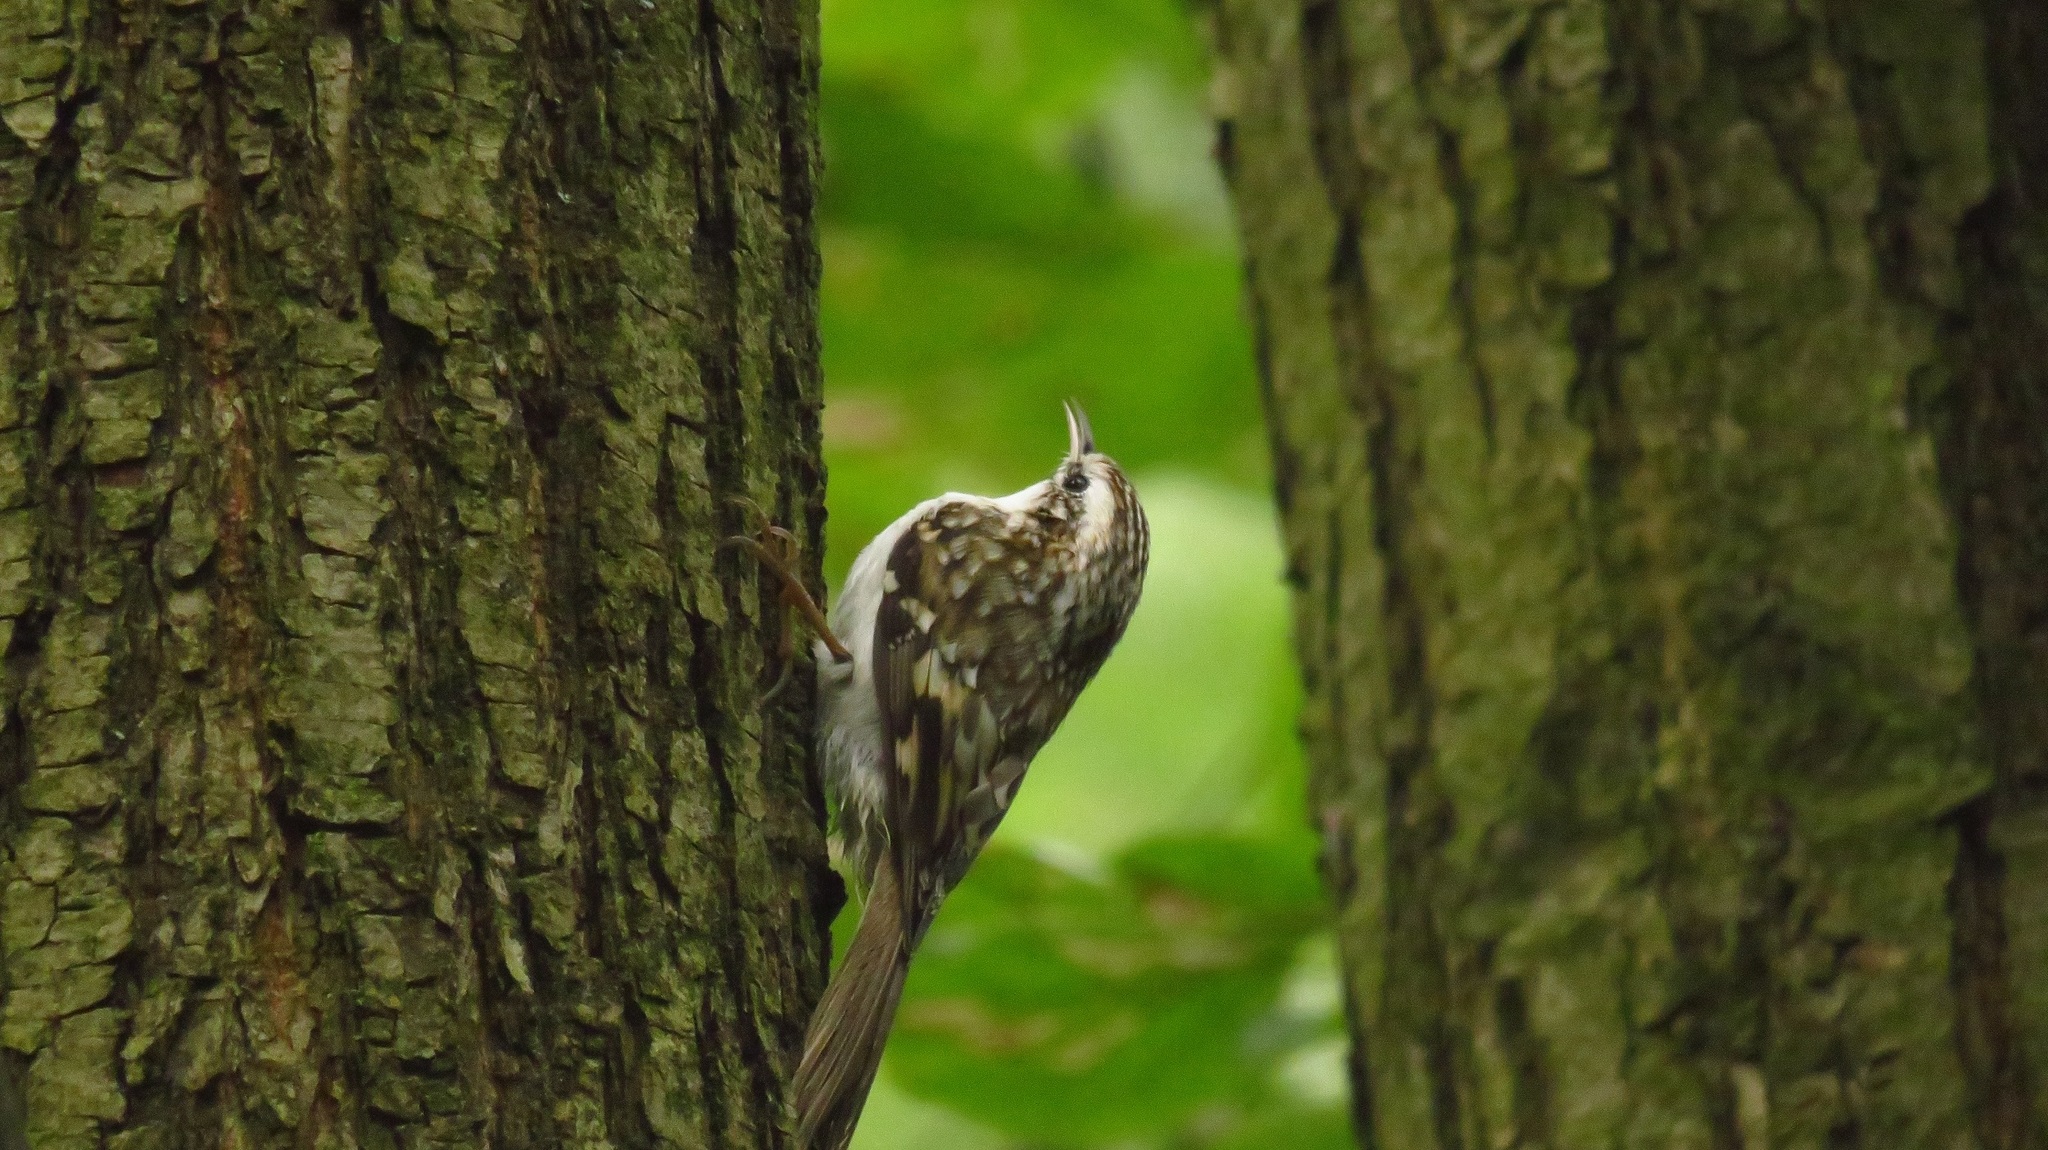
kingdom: Animalia
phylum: Chordata
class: Aves
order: Passeriformes
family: Certhiidae
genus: Certhia
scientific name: Certhia familiaris
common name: Eurasian treecreeper
